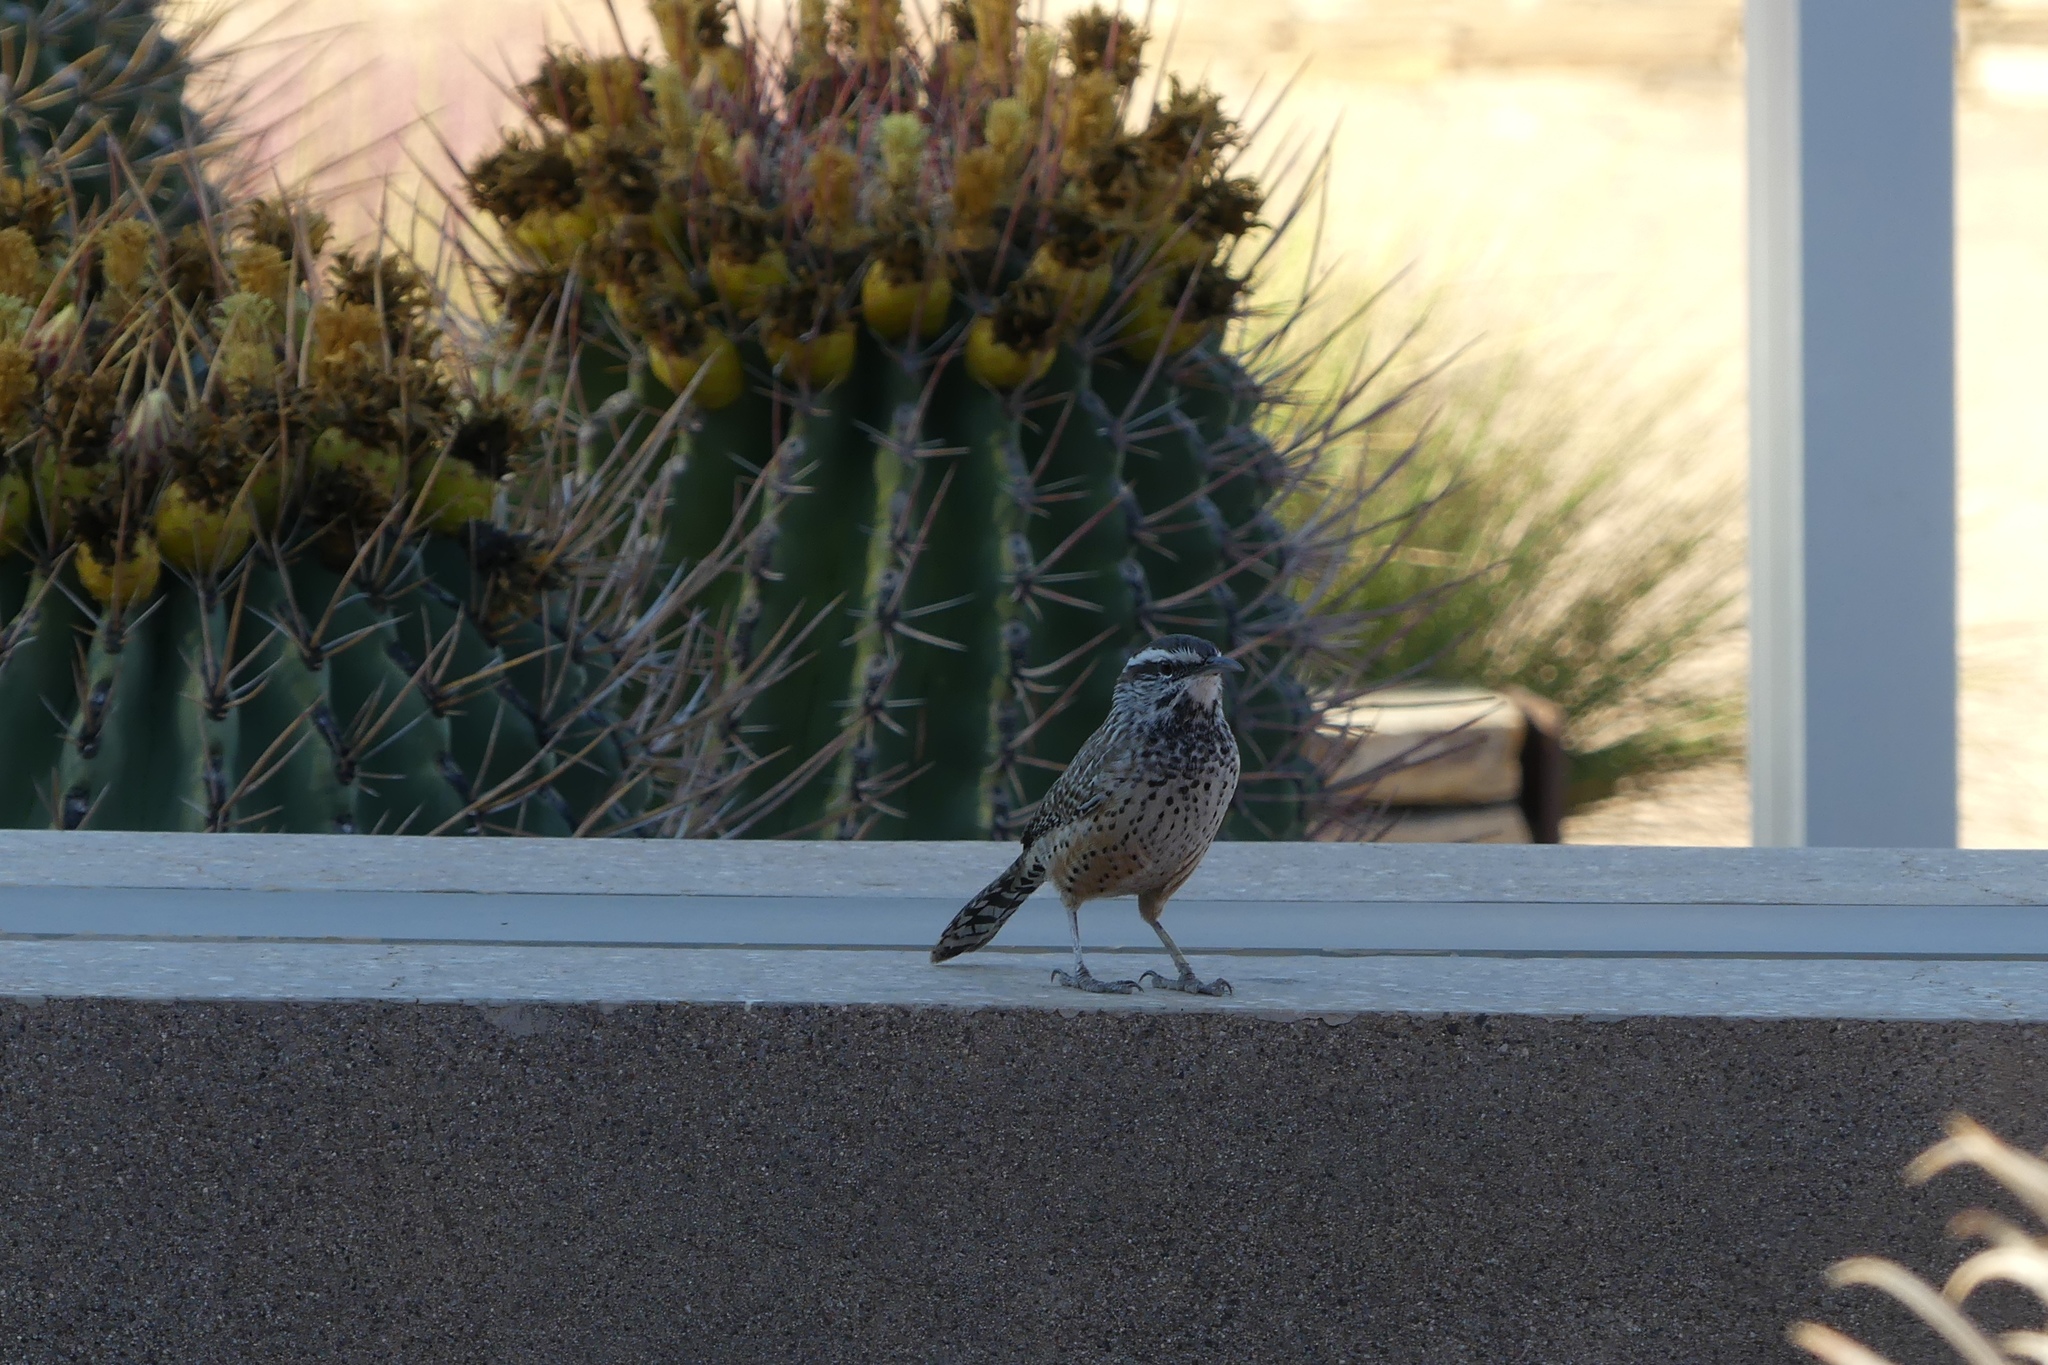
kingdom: Animalia
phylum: Chordata
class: Aves
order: Passeriformes
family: Troglodytidae
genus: Campylorhynchus
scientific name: Campylorhynchus brunneicapillus
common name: Cactus wren
